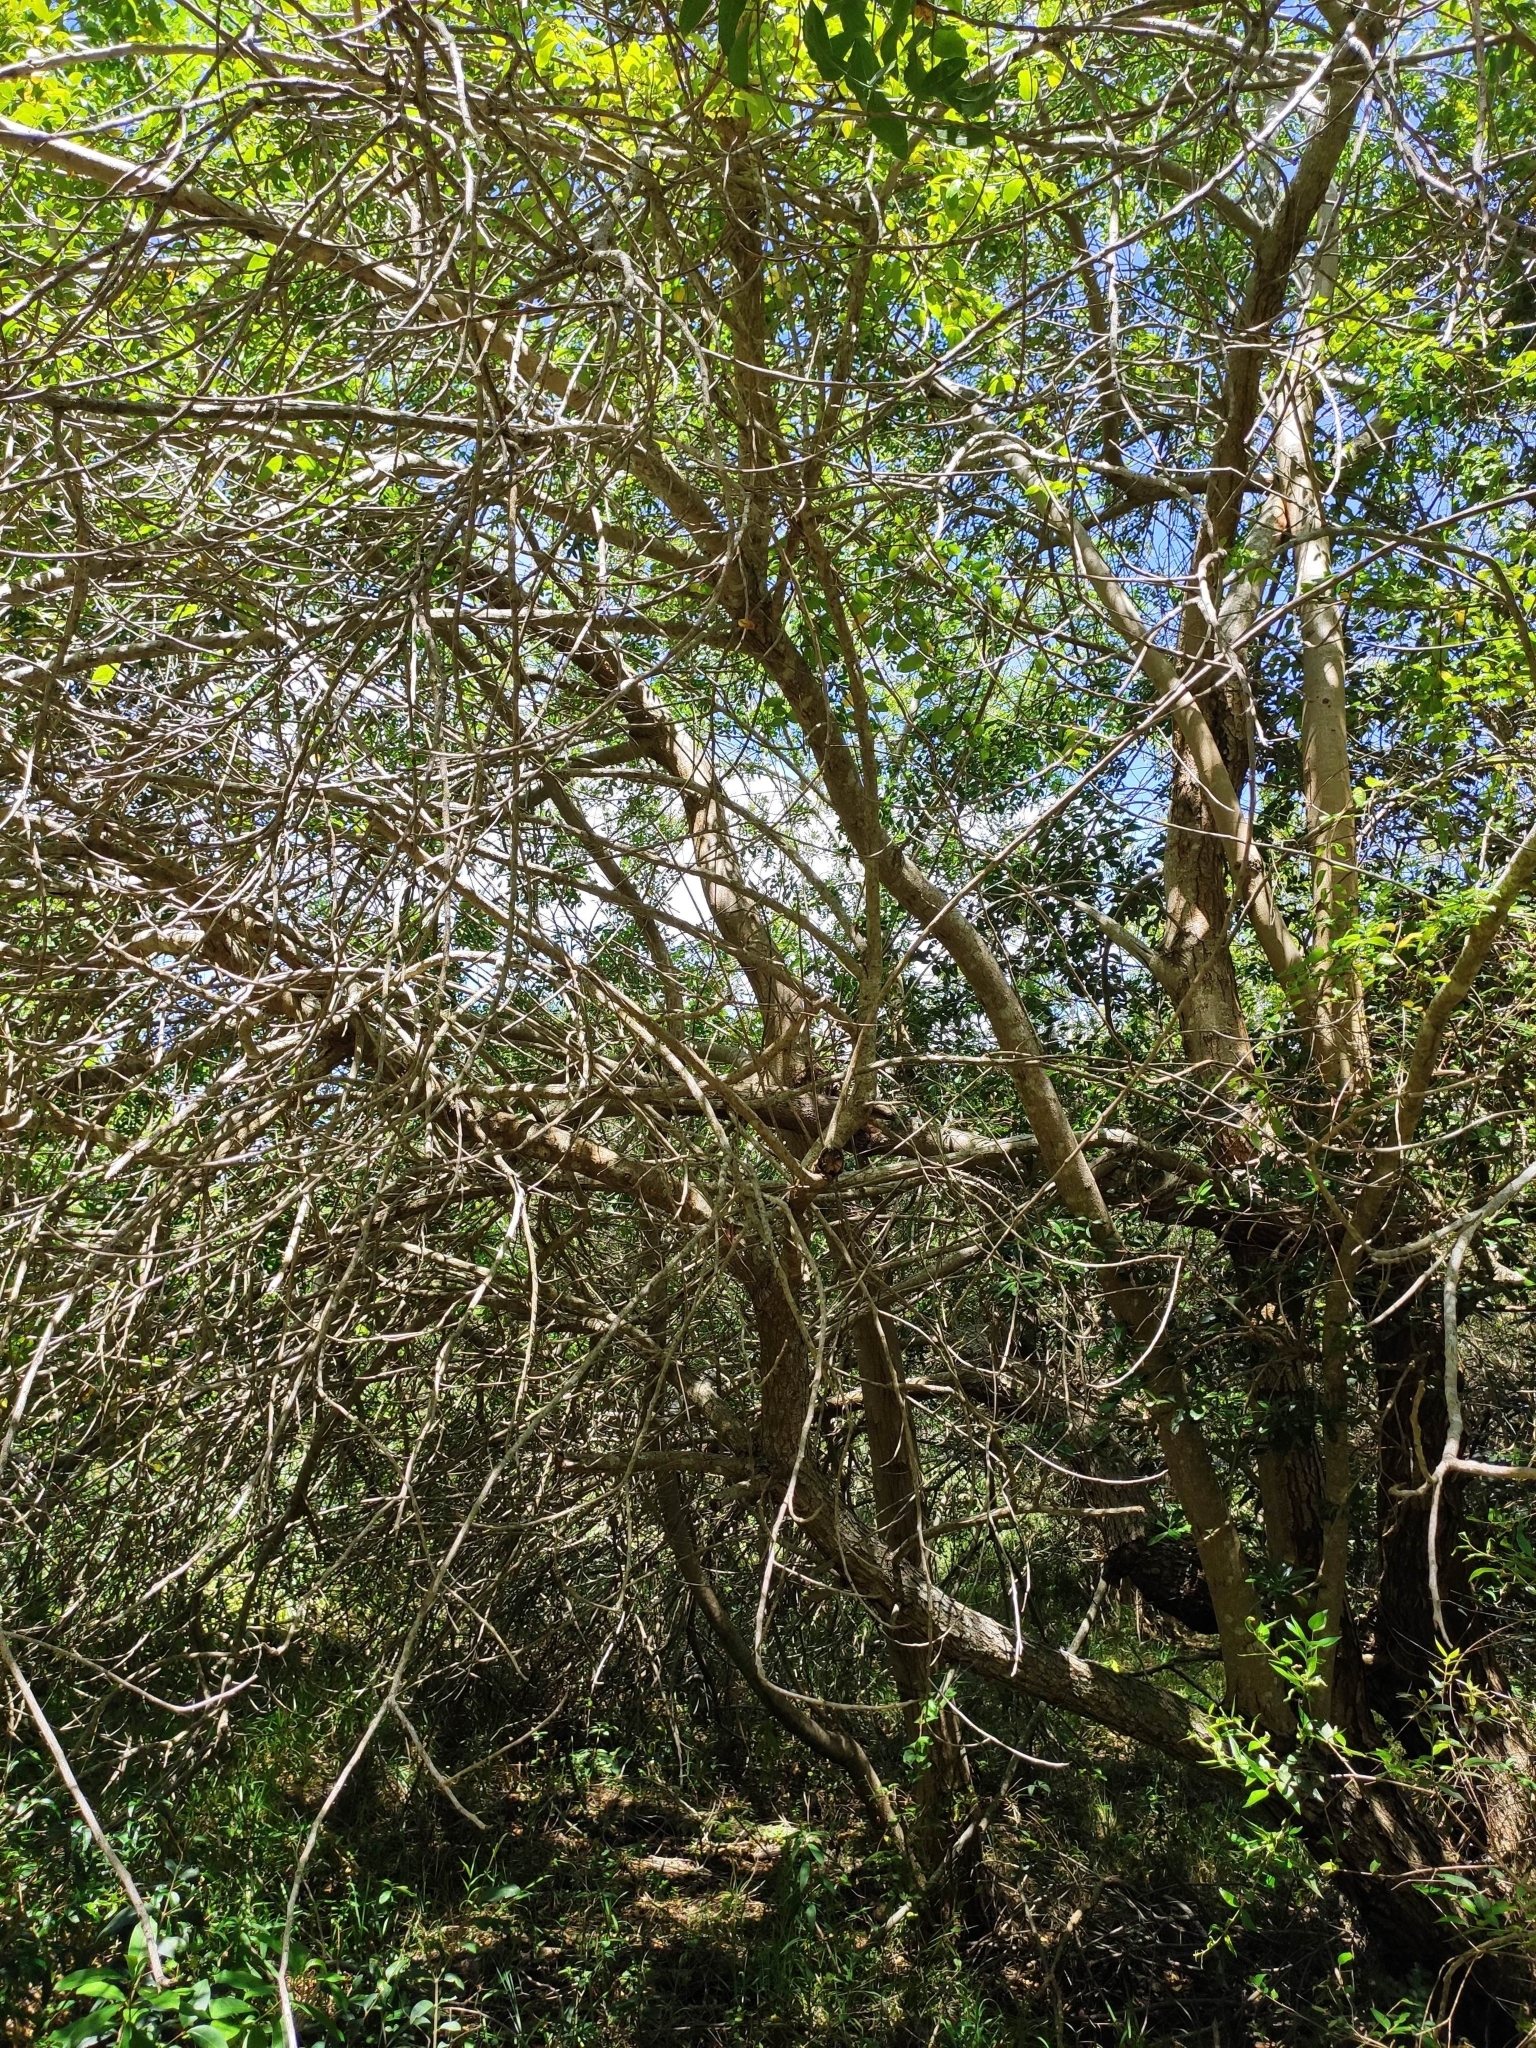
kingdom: Plantae
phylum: Tracheophyta
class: Magnoliopsida
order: Sapindales
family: Anacardiaceae
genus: Schinus
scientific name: Schinus terebinthifolia
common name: Brazilian peppertree
